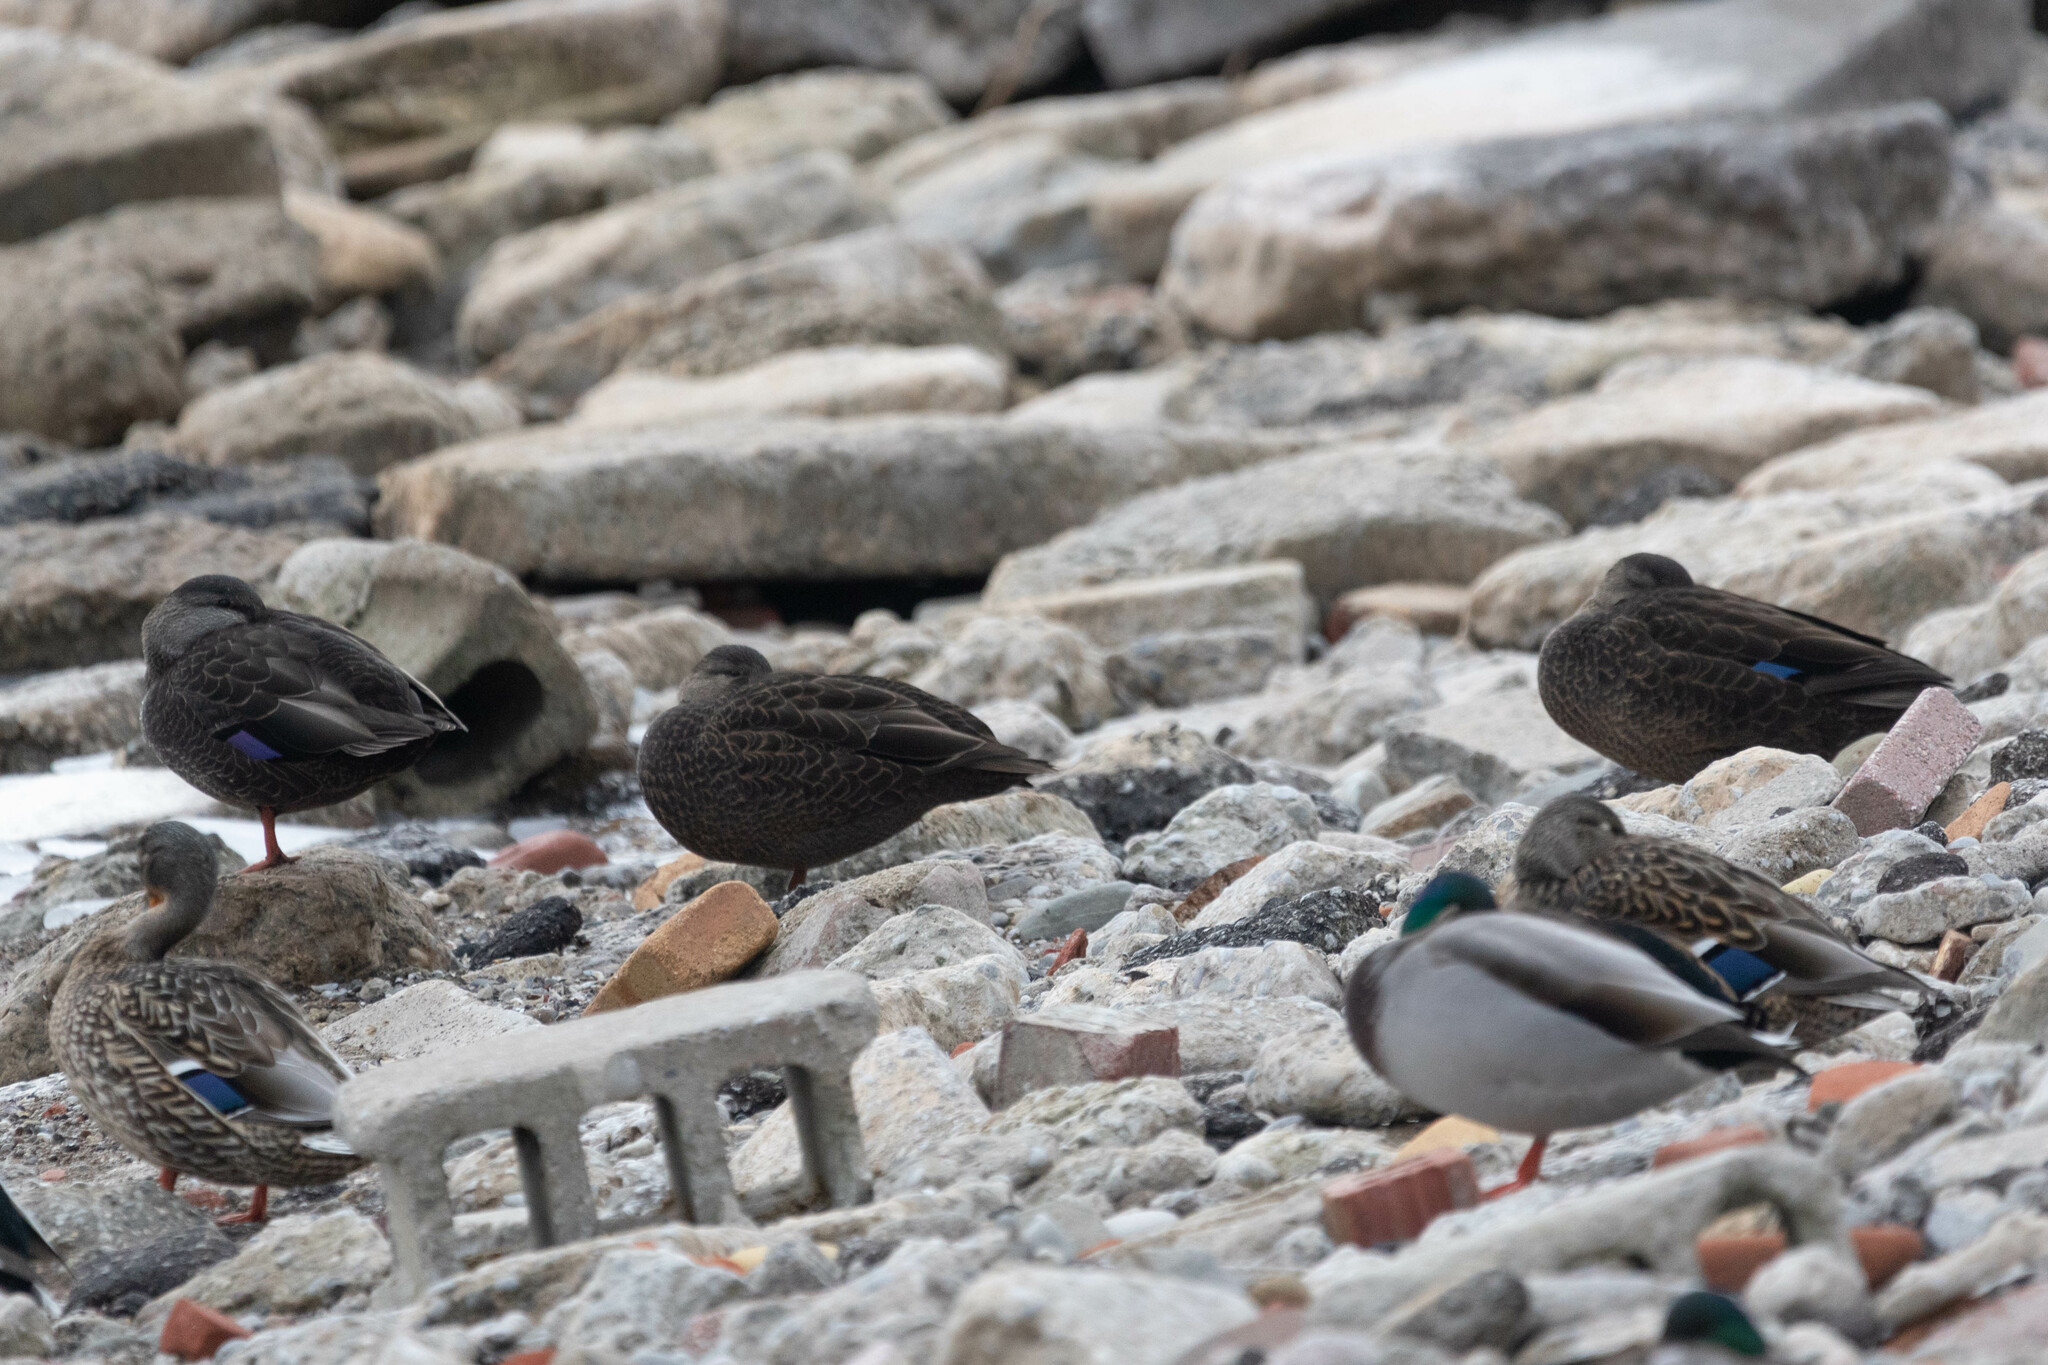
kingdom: Animalia
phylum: Chordata
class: Aves
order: Anseriformes
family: Anatidae
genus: Anas
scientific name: Anas rubripes
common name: American black duck
